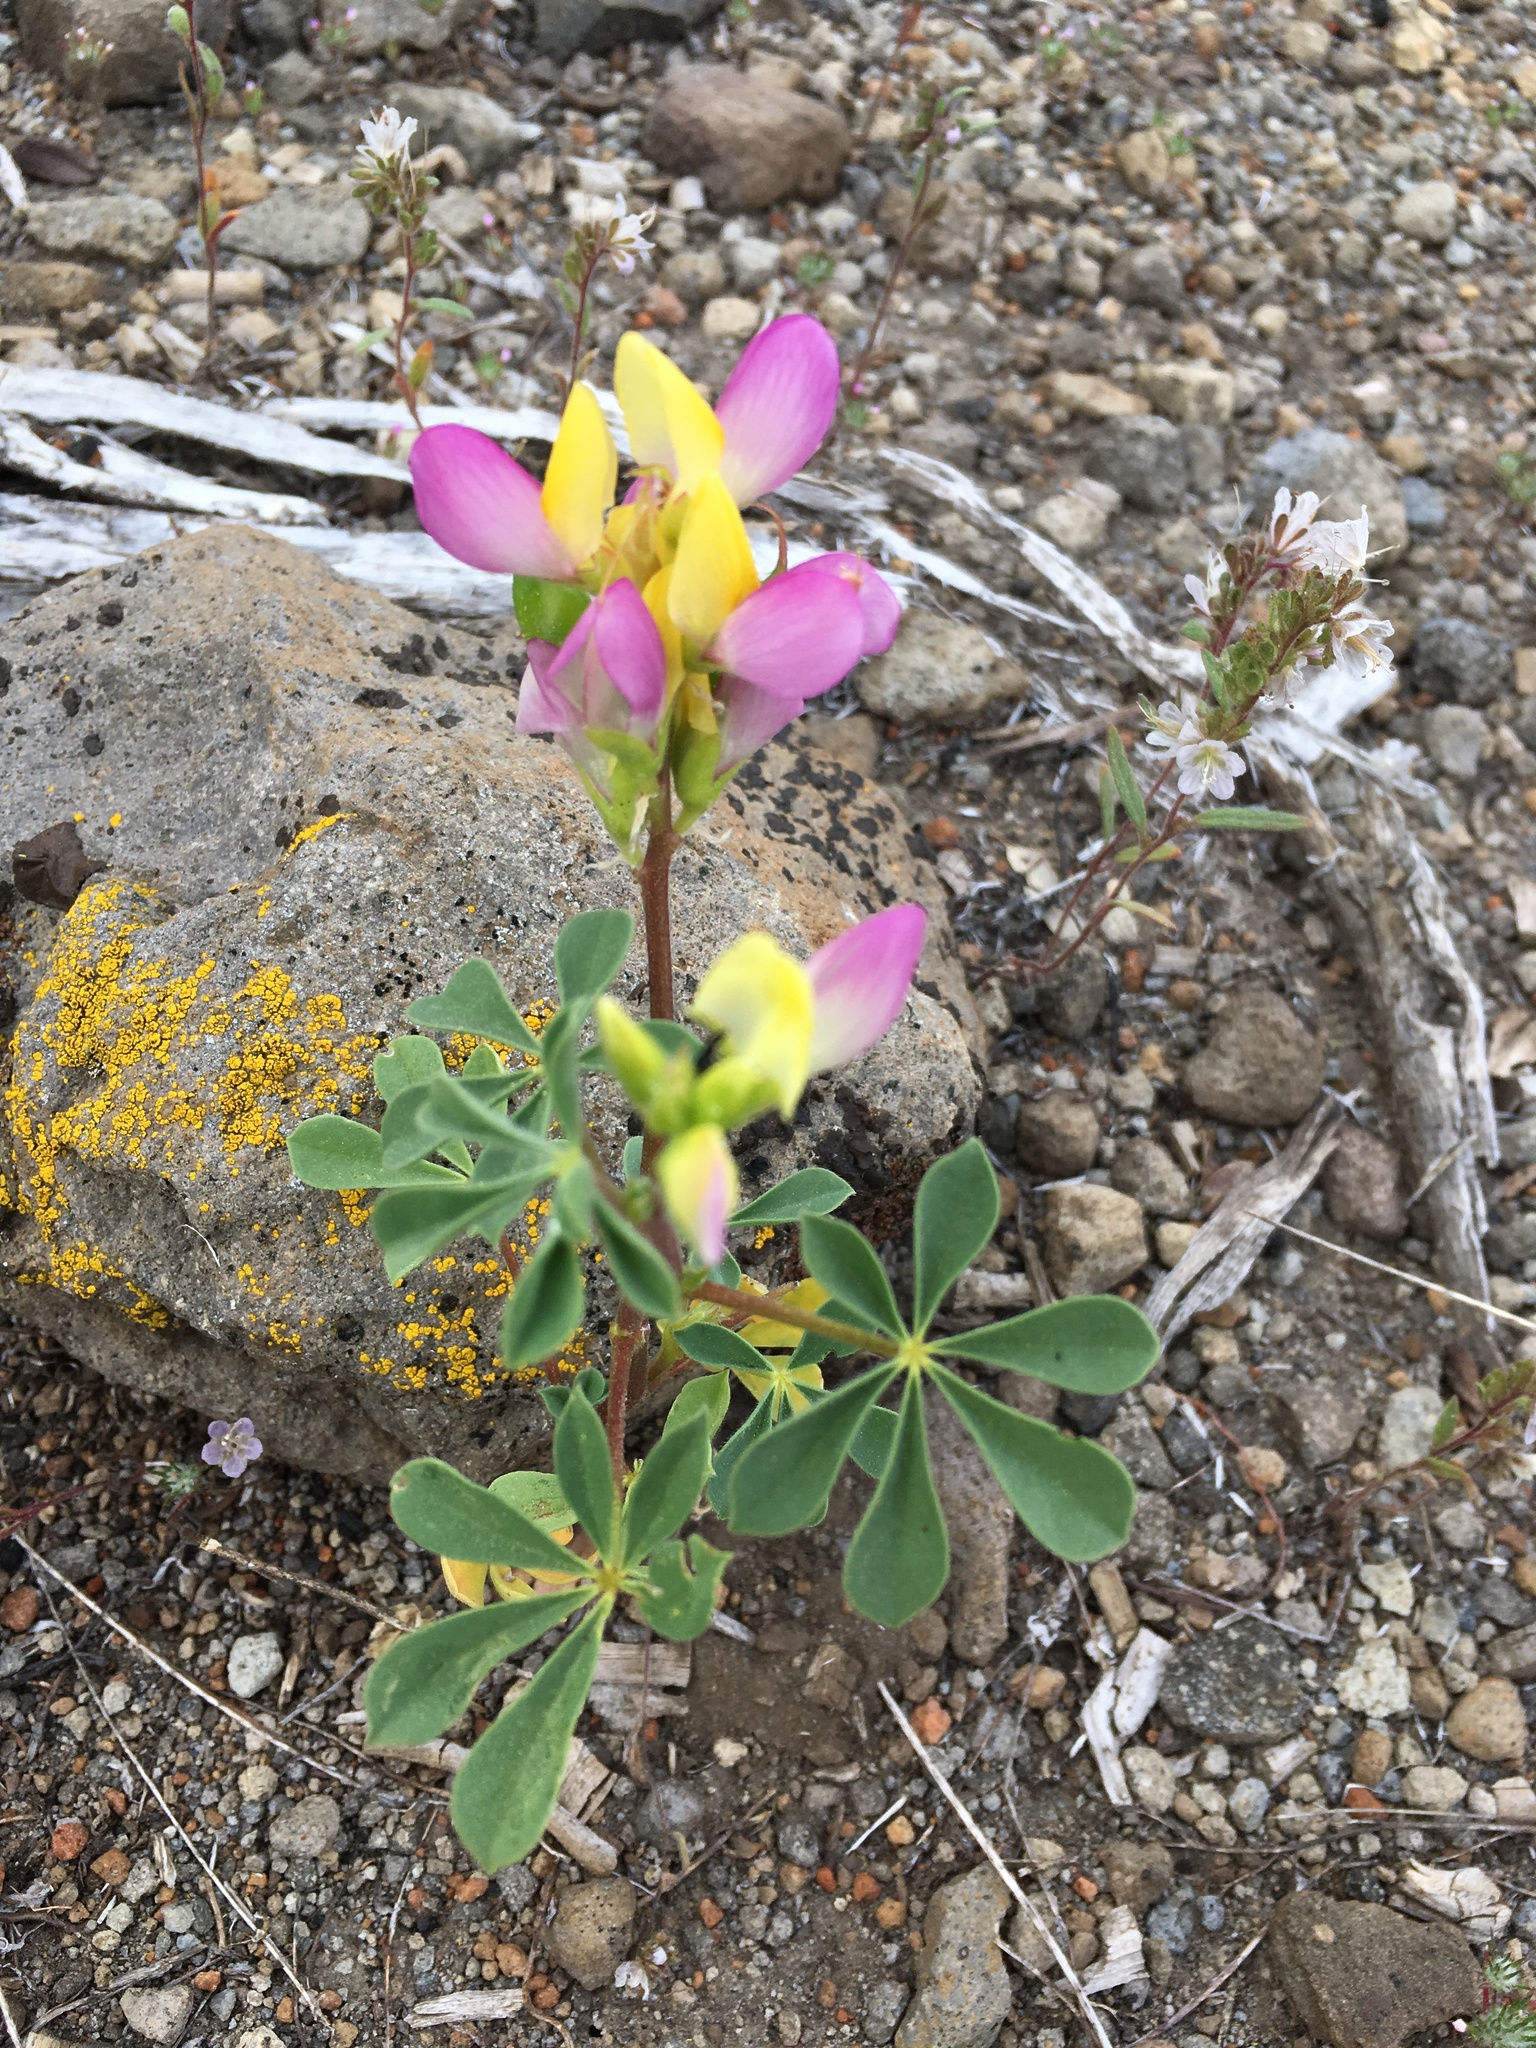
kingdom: Plantae
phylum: Tracheophyta
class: Magnoliopsida
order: Fabales
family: Fabaceae
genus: Lupinus
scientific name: Lupinus stiversii
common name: Harlequin lupine
